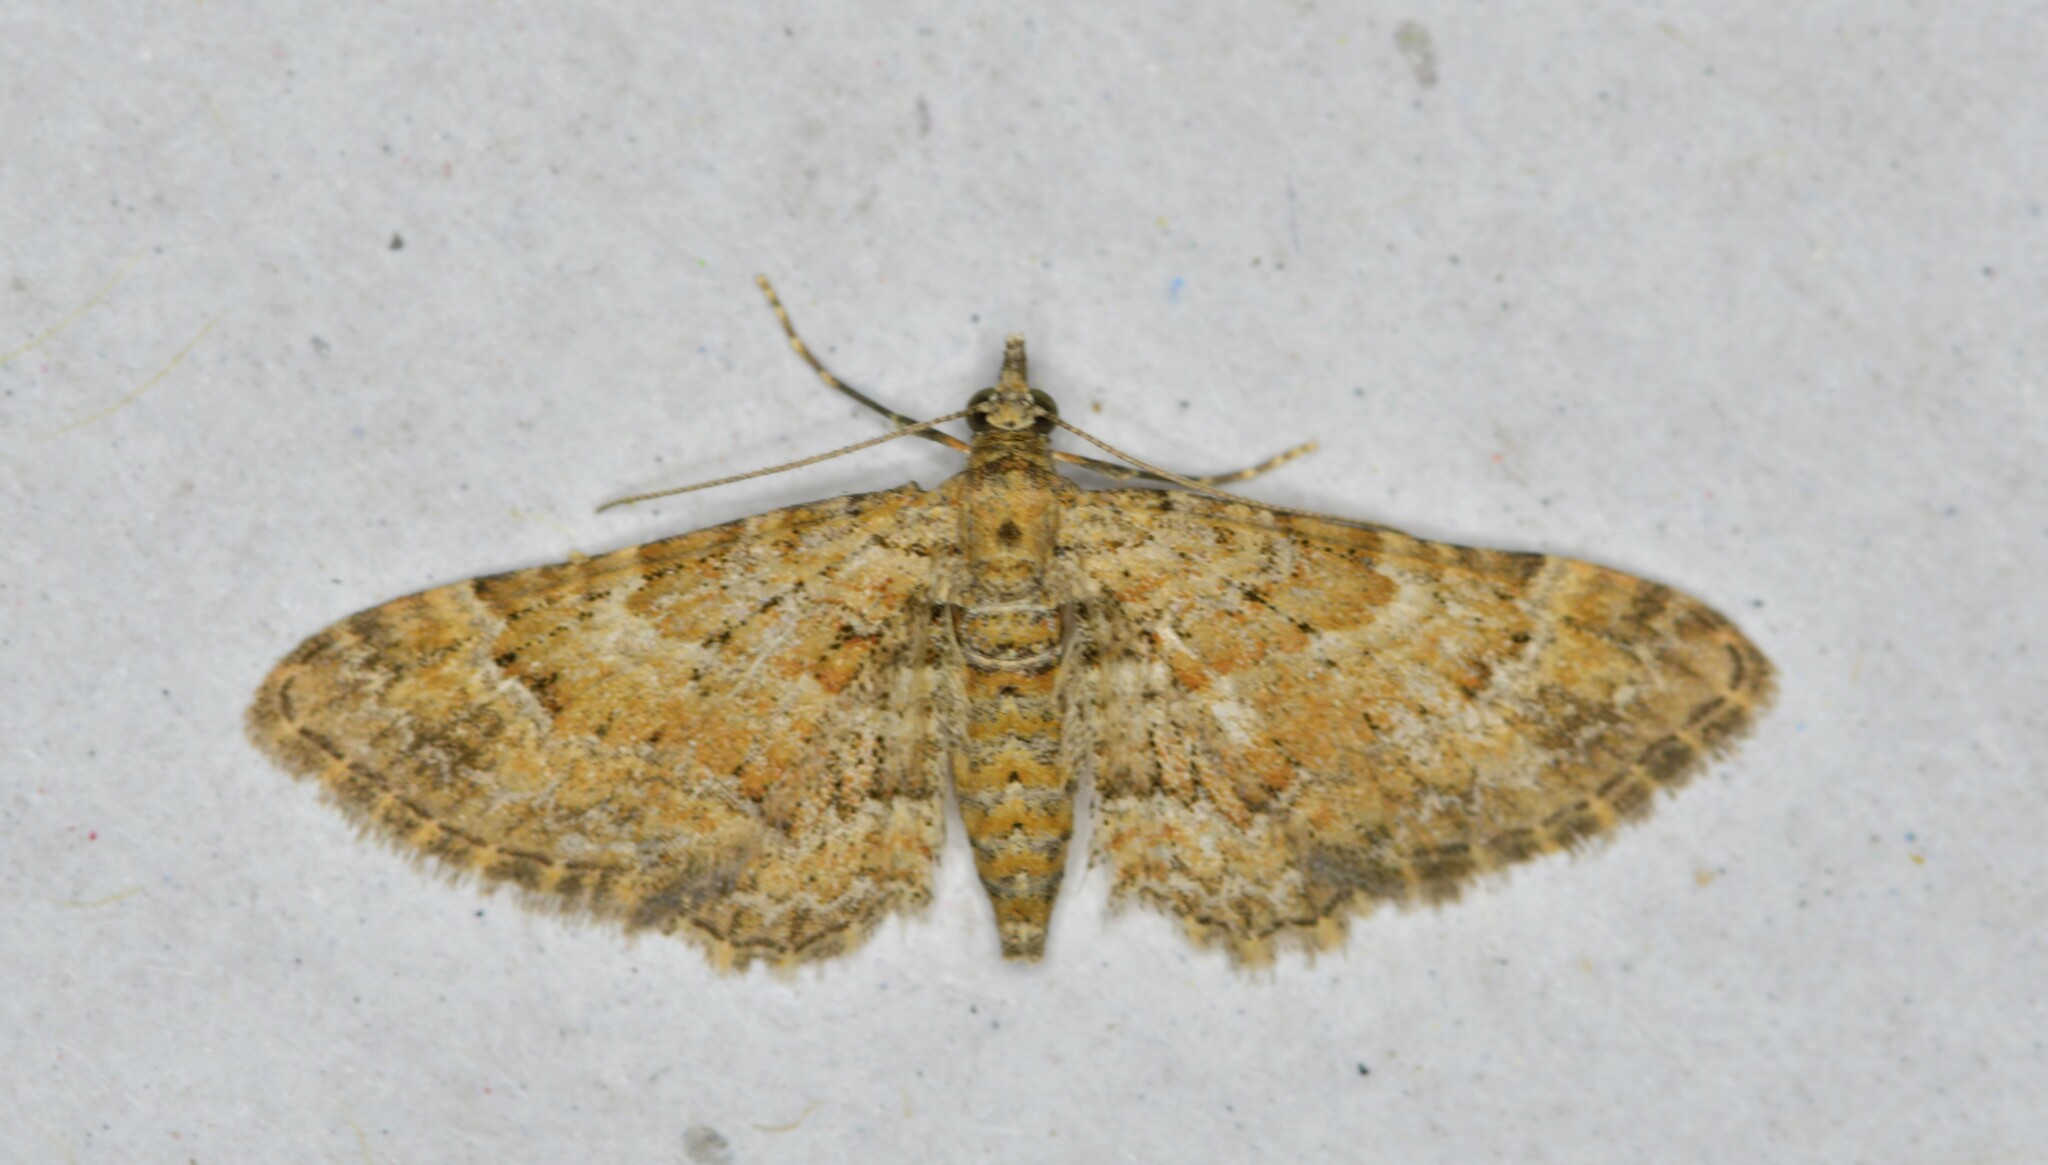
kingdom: Animalia
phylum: Arthropoda
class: Insecta
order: Lepidoptera
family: Geometridae
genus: Gymnoscelis
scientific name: Gymnoscelis rufifasciata
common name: Double-striped pug
